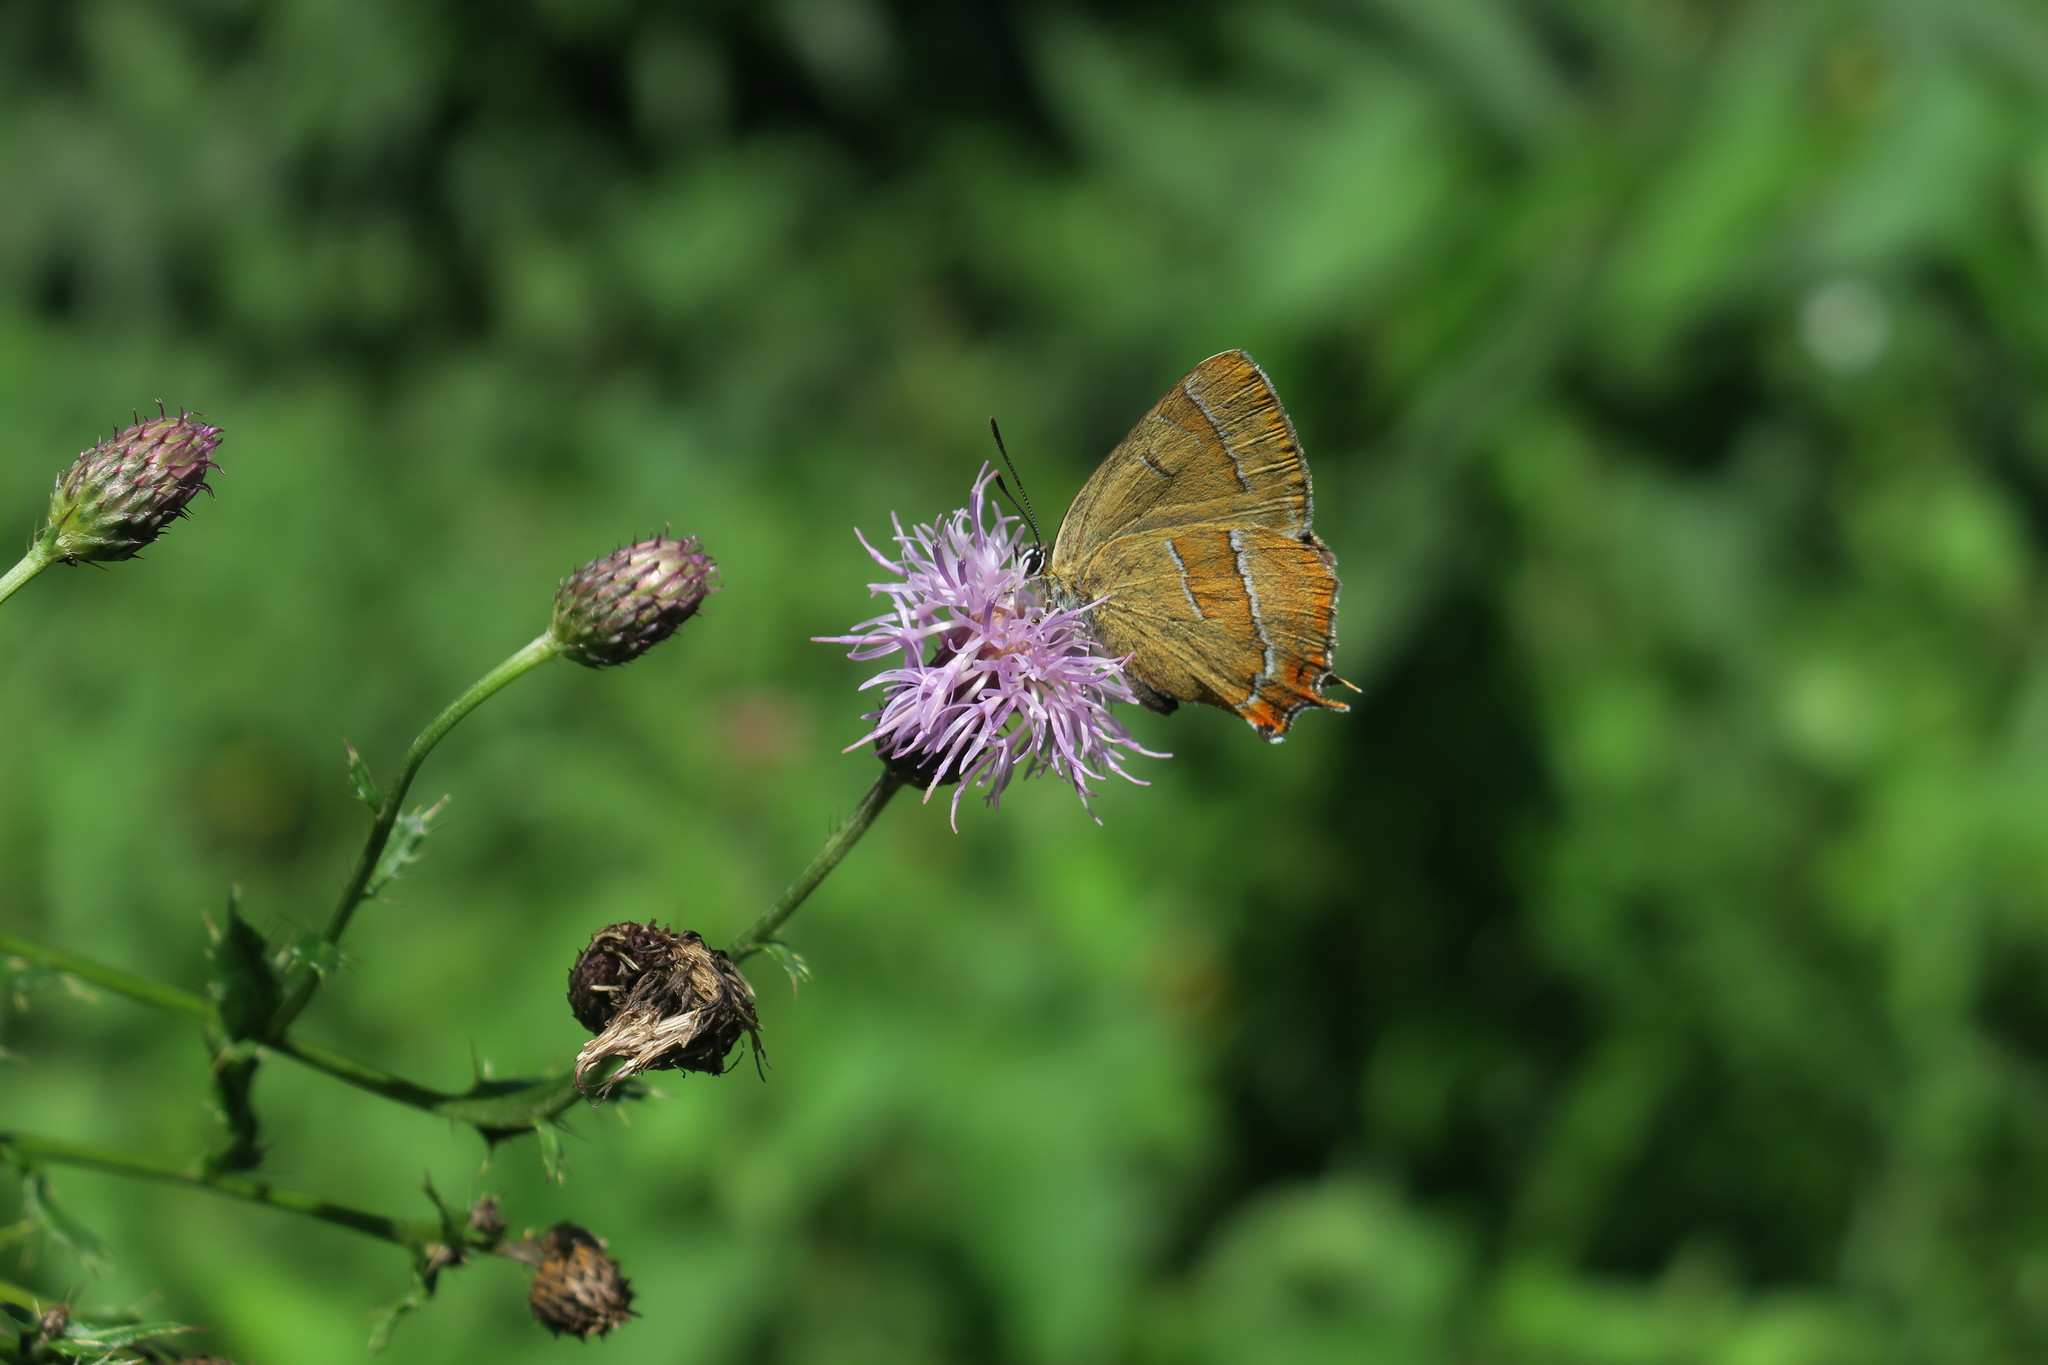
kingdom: Animalia
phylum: Arthropoda
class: Insecta
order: Lepidoptera
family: Lycaenidae
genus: Thecla
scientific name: Thecla betulae
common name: Brown hairstreak
